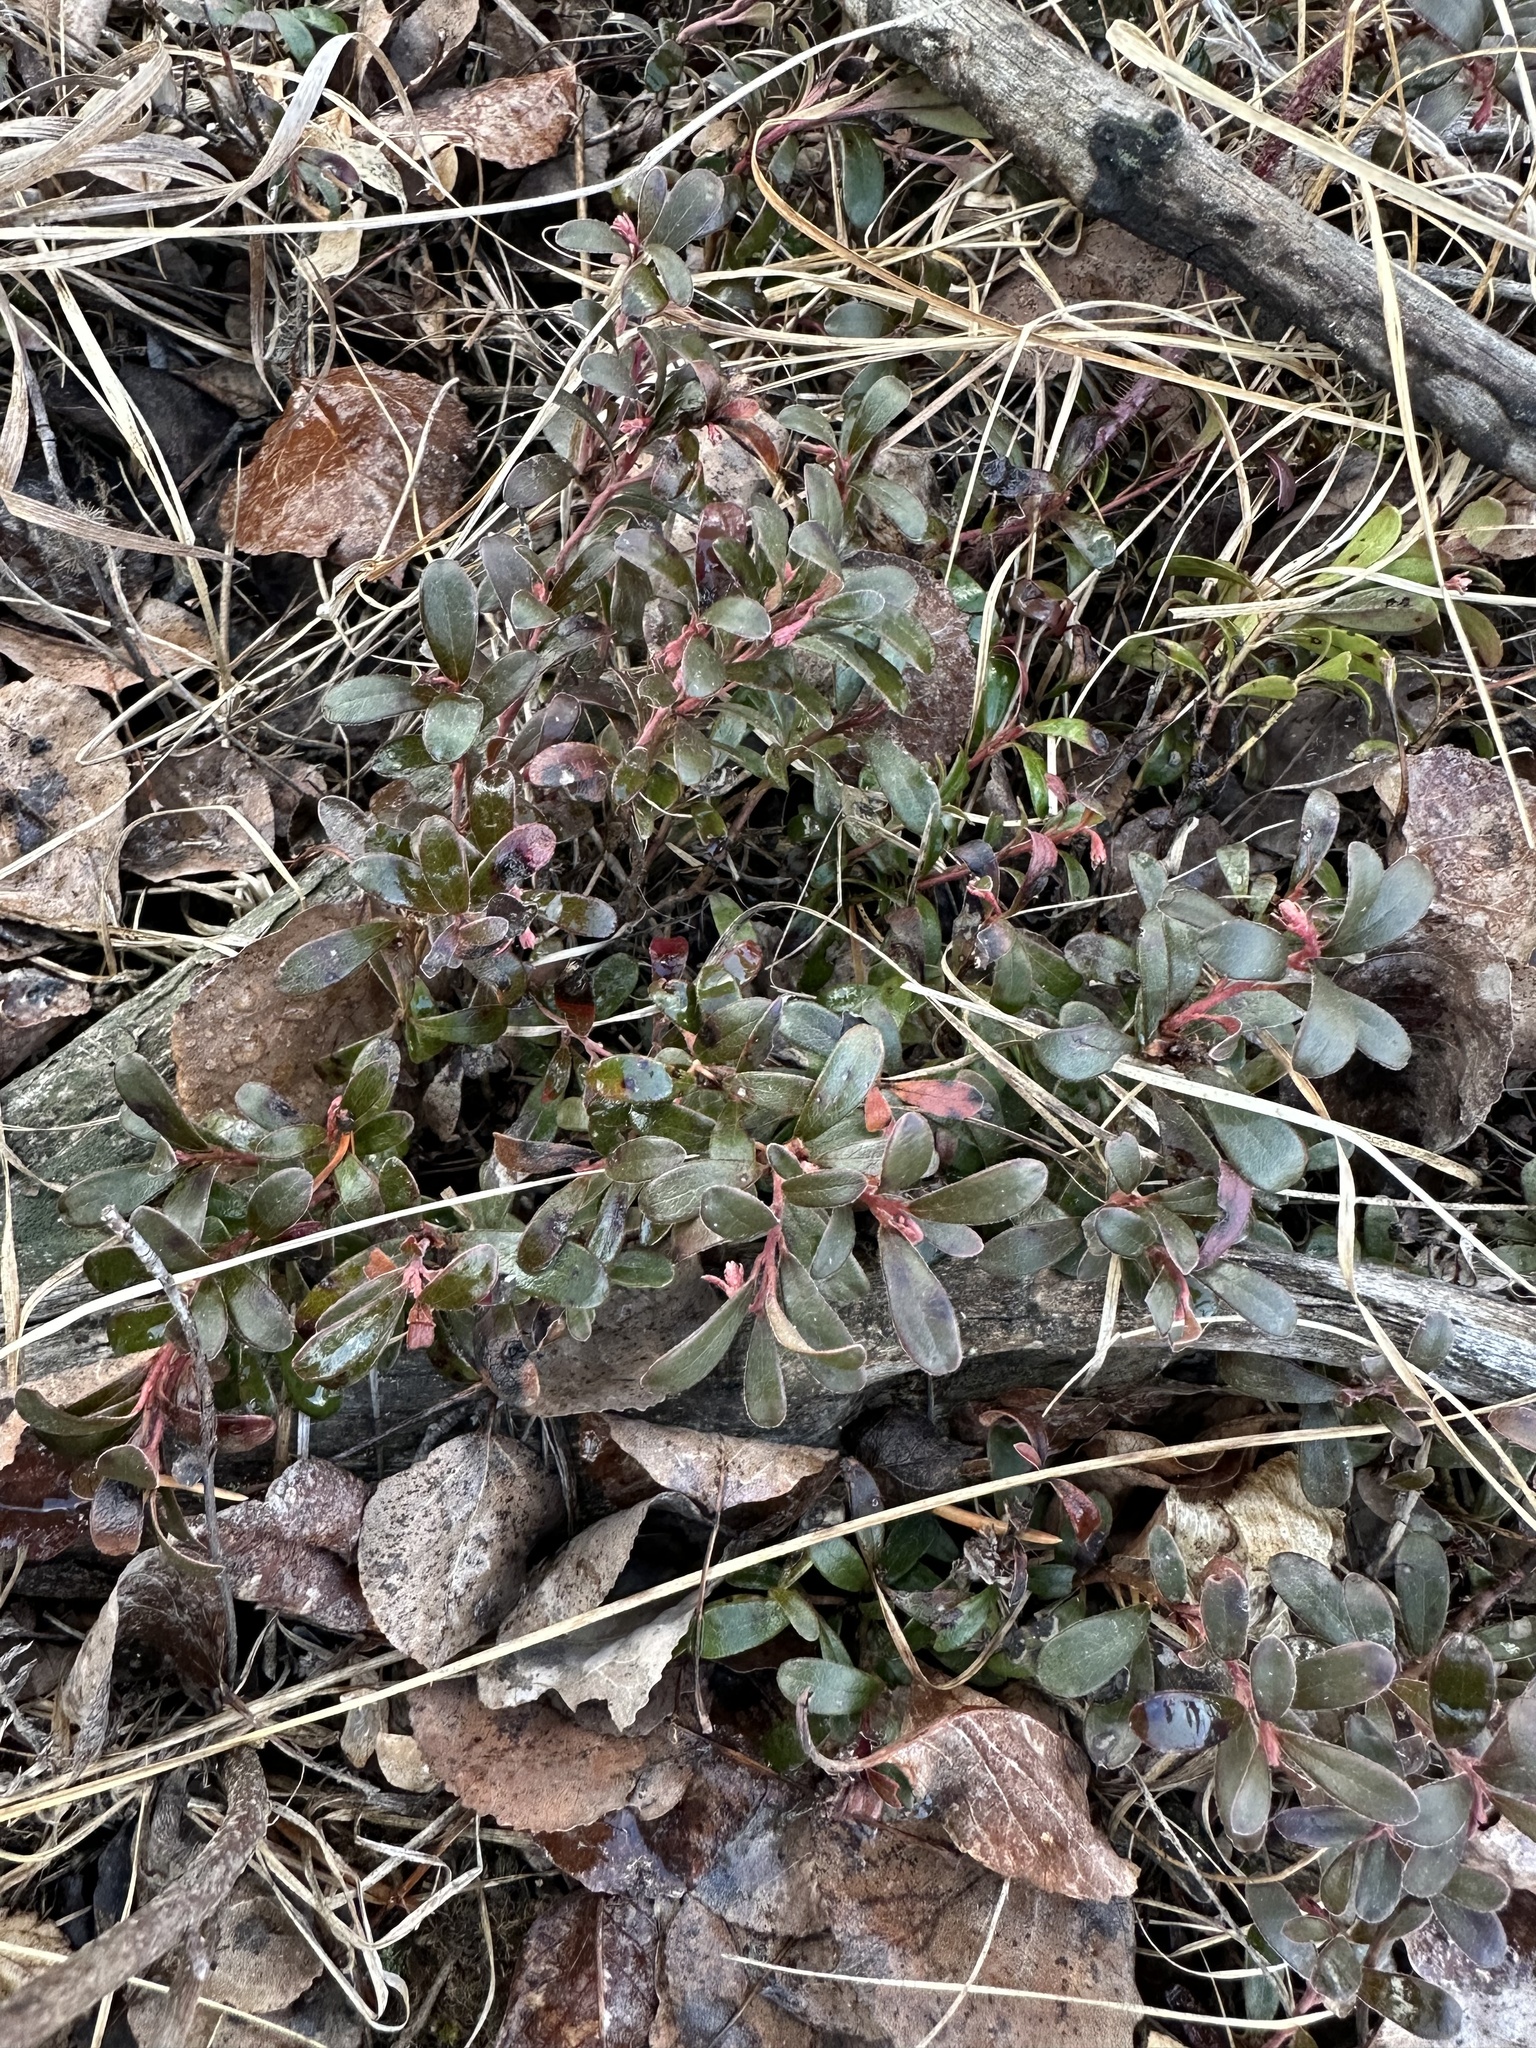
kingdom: Plantae
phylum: Tracheophyta
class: Magnoliopsida
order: Ericales
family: Ericaceae
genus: Arctostaphylos
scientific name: Arctostaphylos uva-ursi
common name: Bearberry
